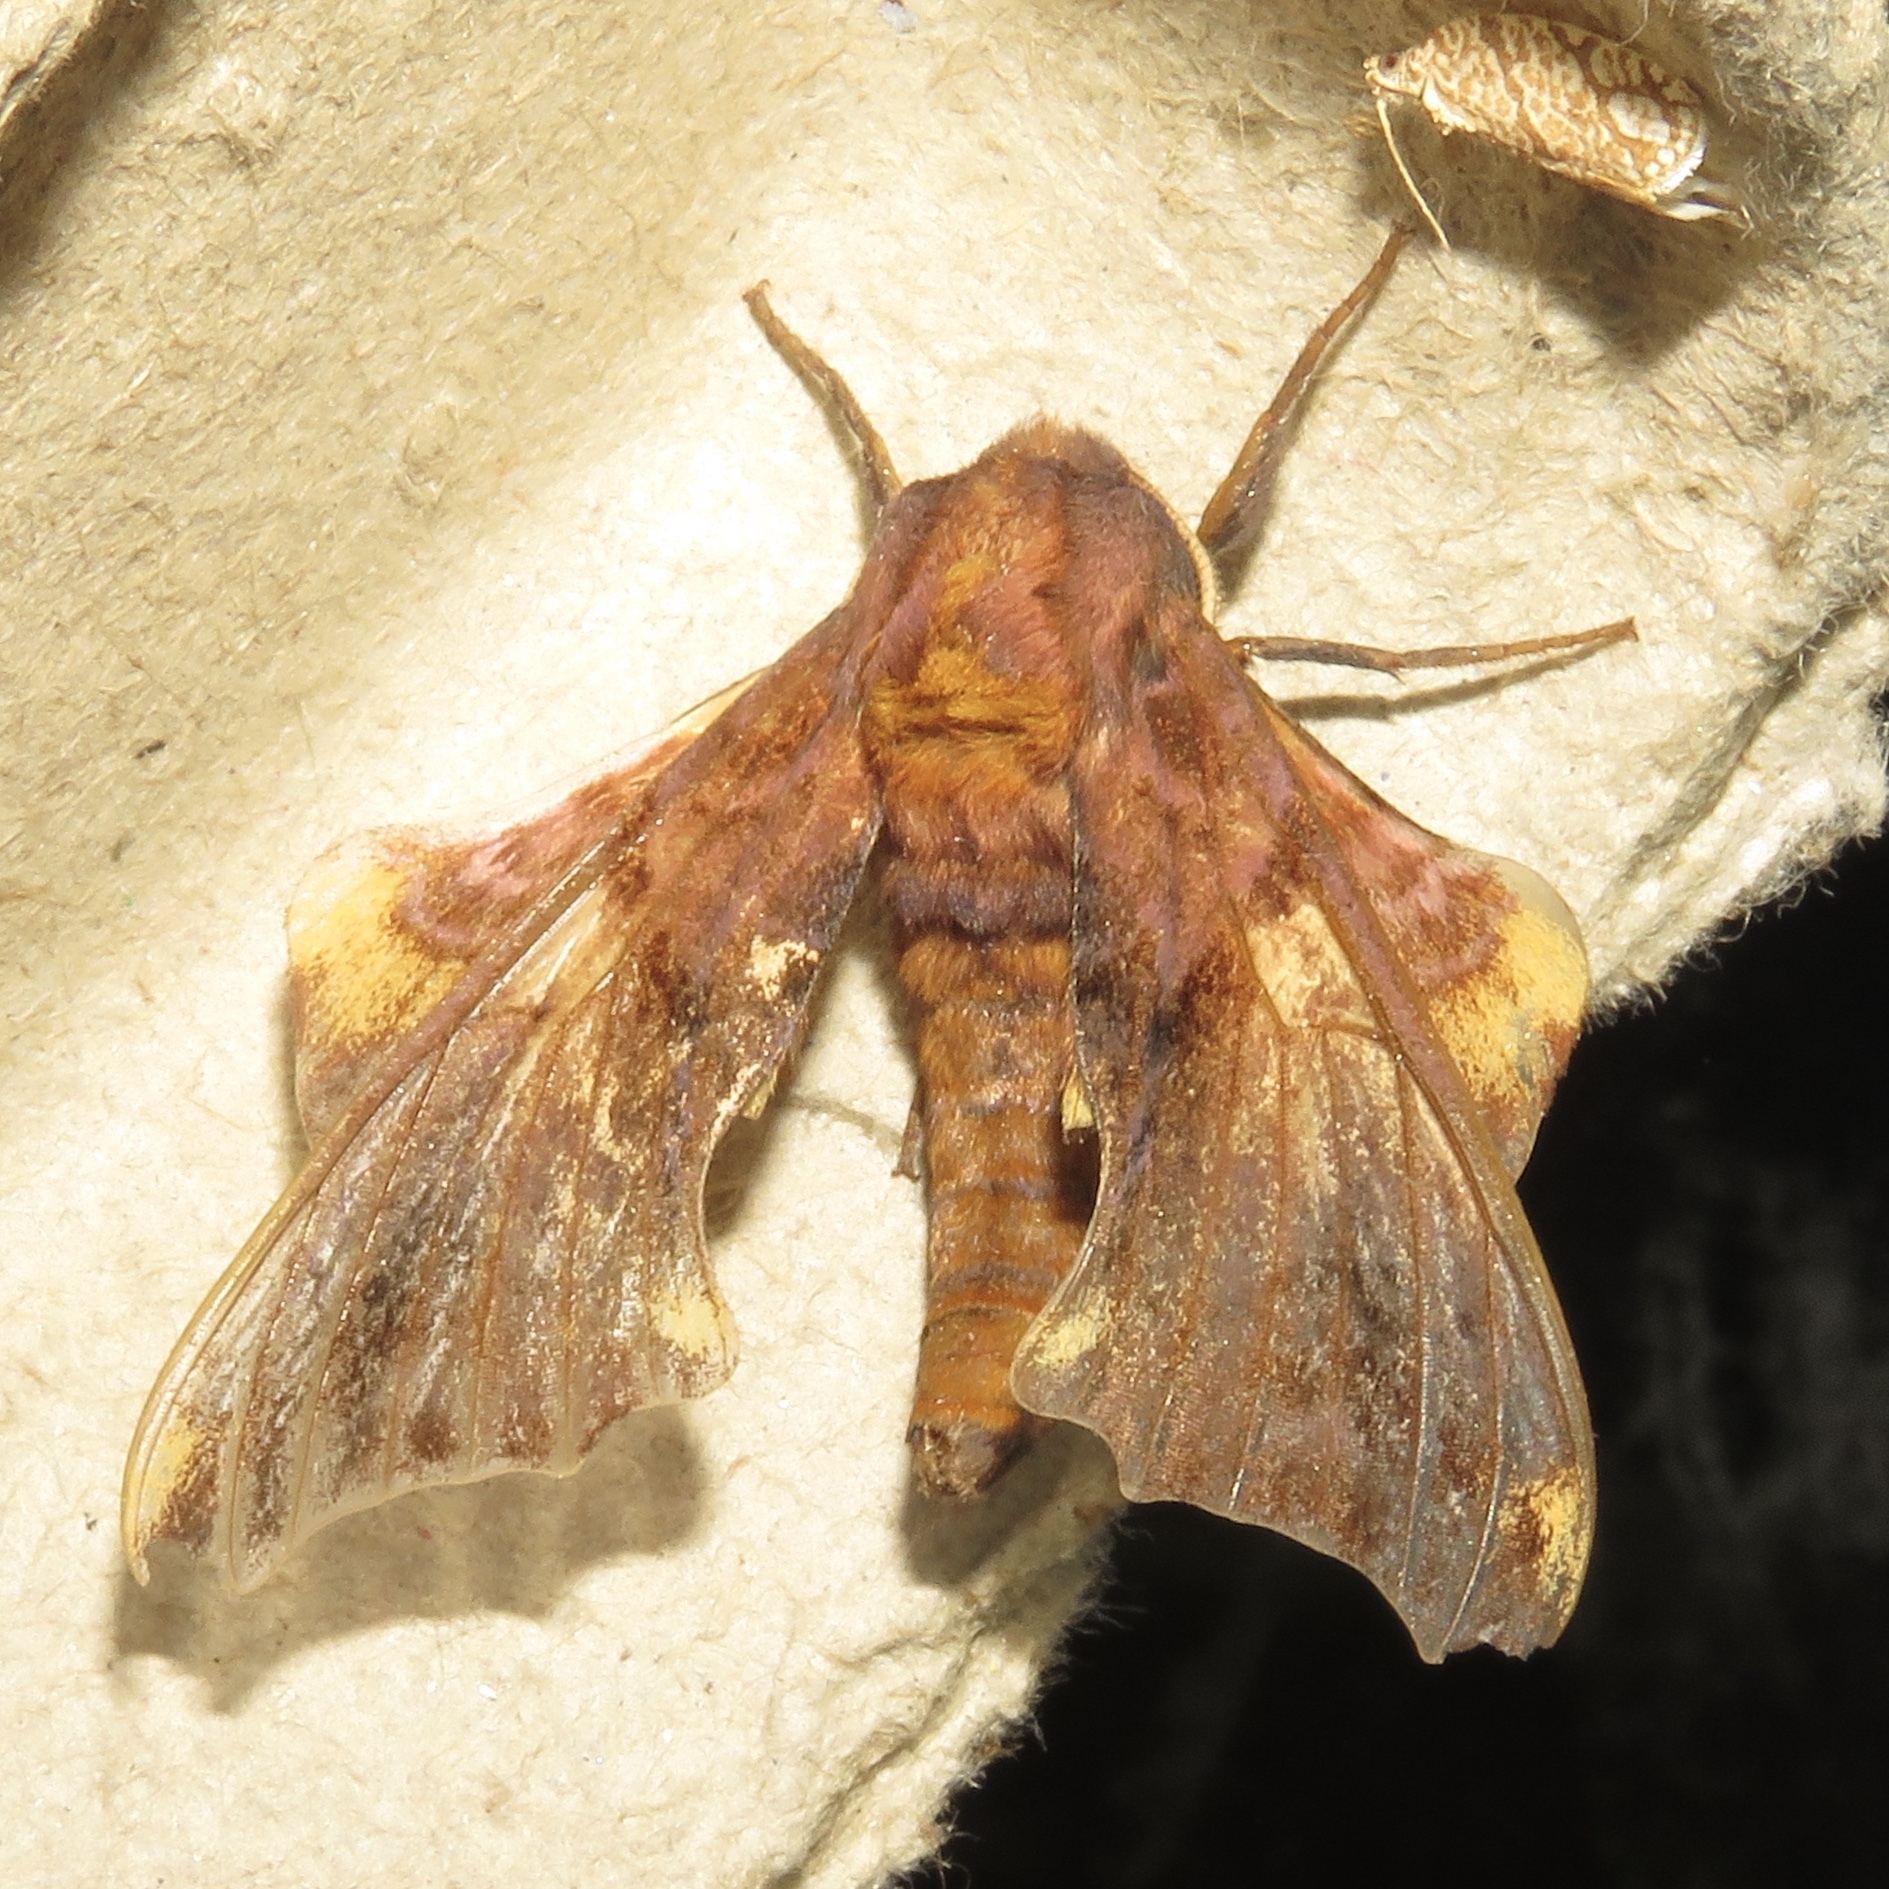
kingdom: Animalia
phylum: Arthropoda
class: Insecta
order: Lepidoptera
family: Sphingidae
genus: Paonias
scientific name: Paonias myops
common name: Small-eyed sphinx
